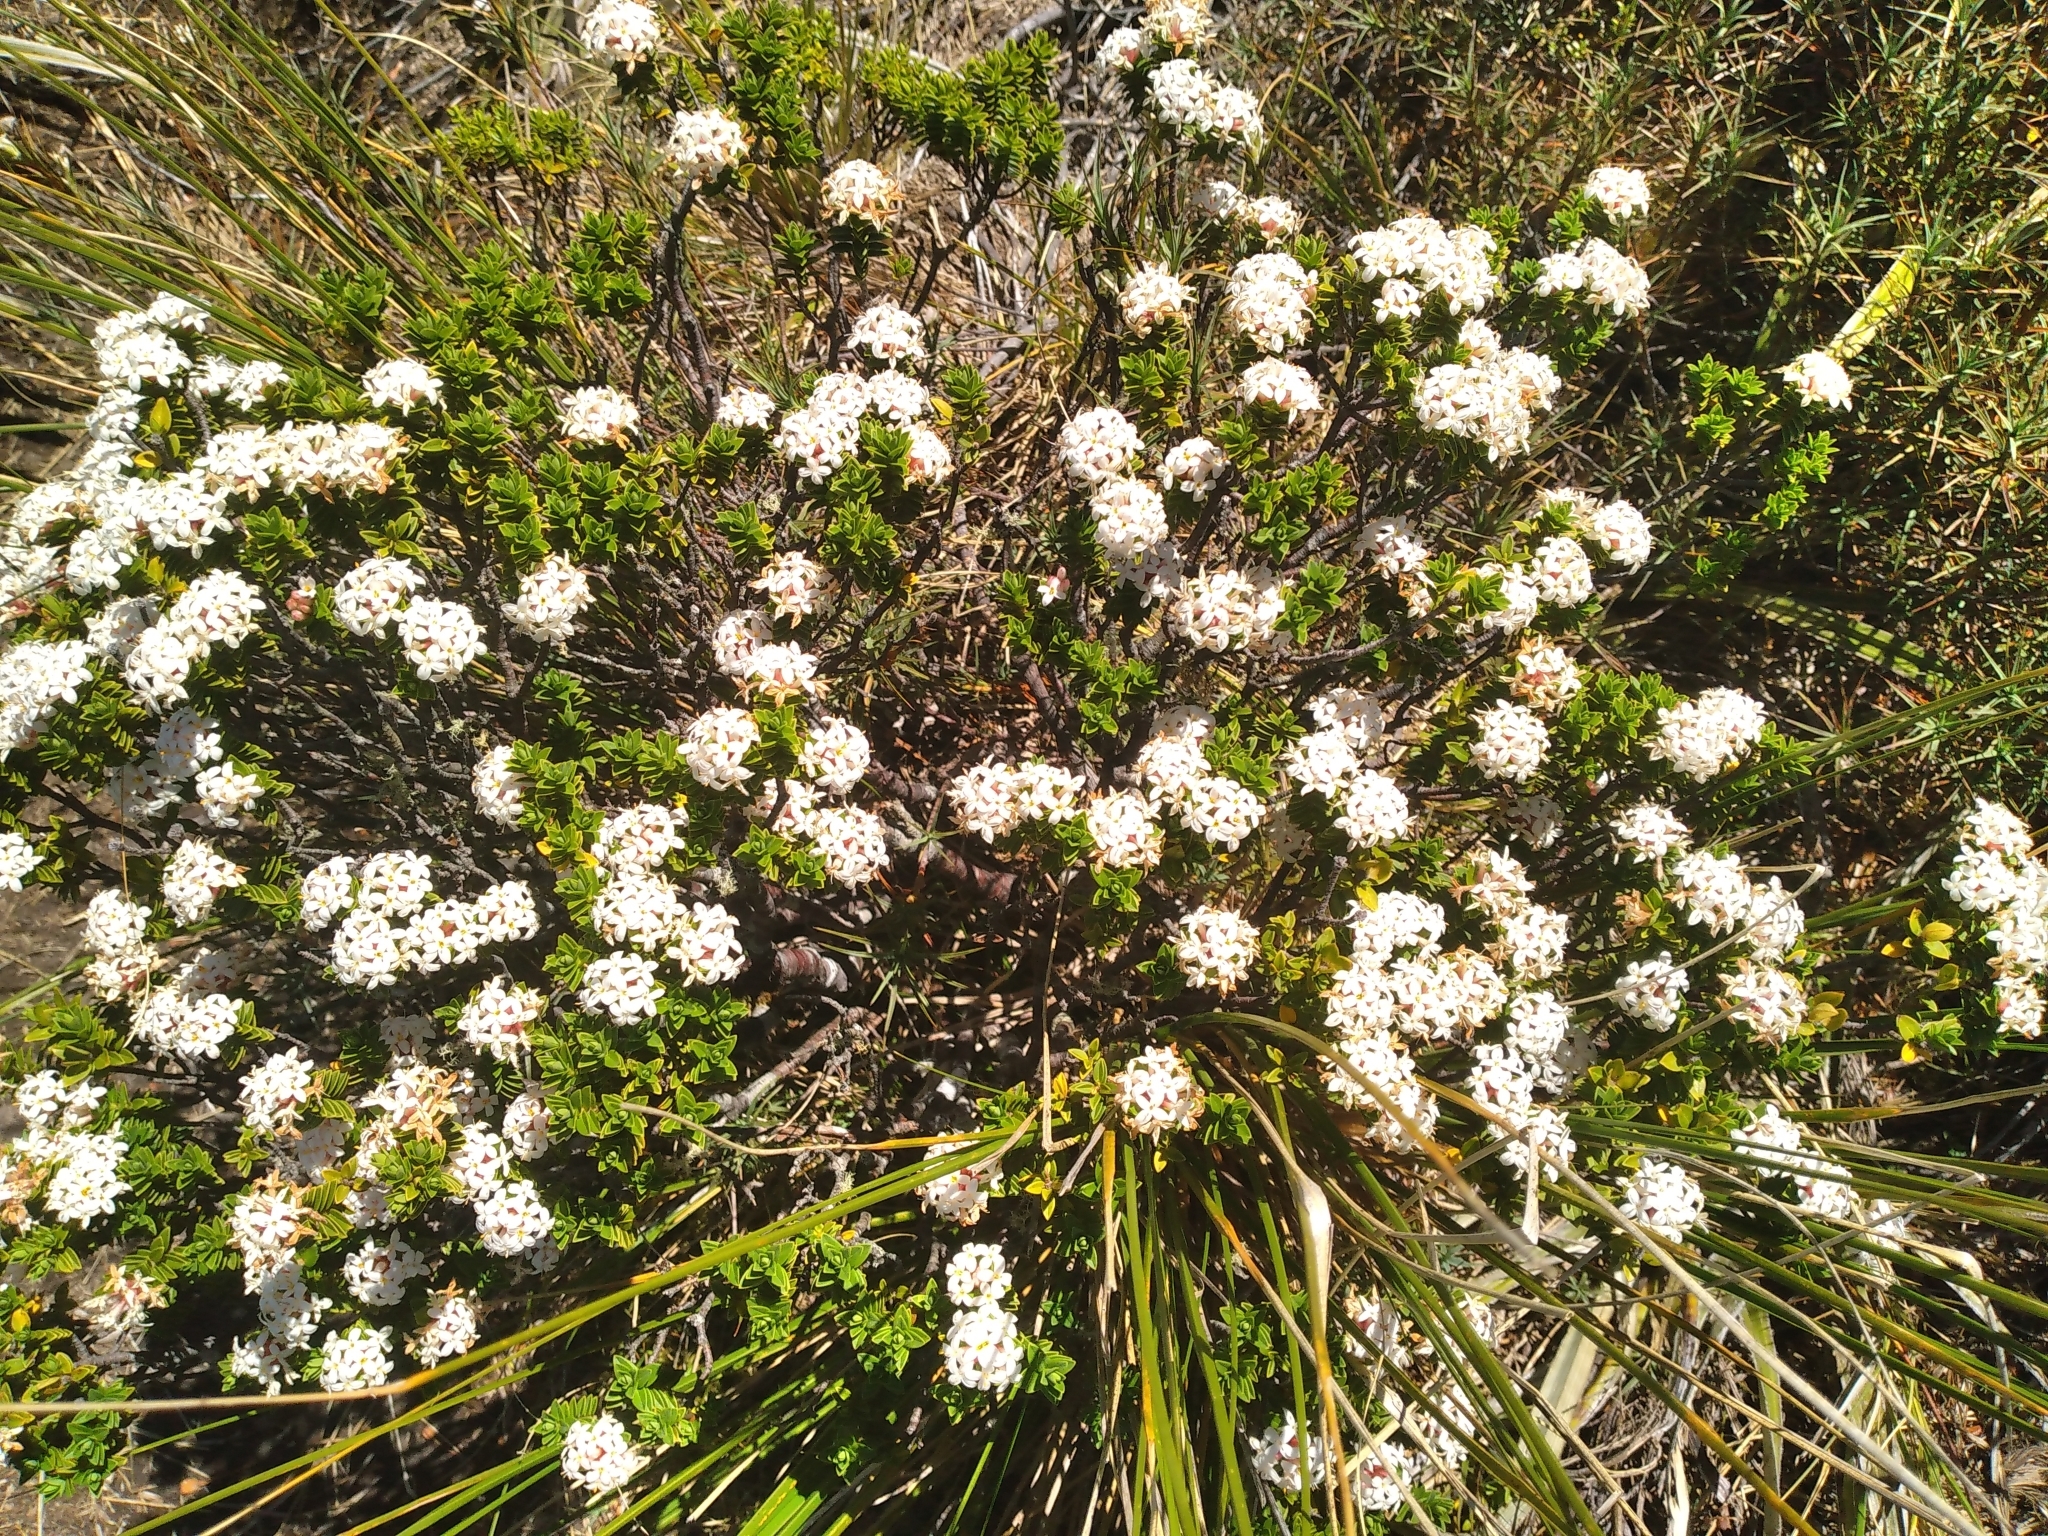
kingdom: Plantae
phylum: Tracheophyta
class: Magnoliopsida
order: Malvales
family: Thymelaeaceae
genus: Pimelea
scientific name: Pimelea buxifolia
